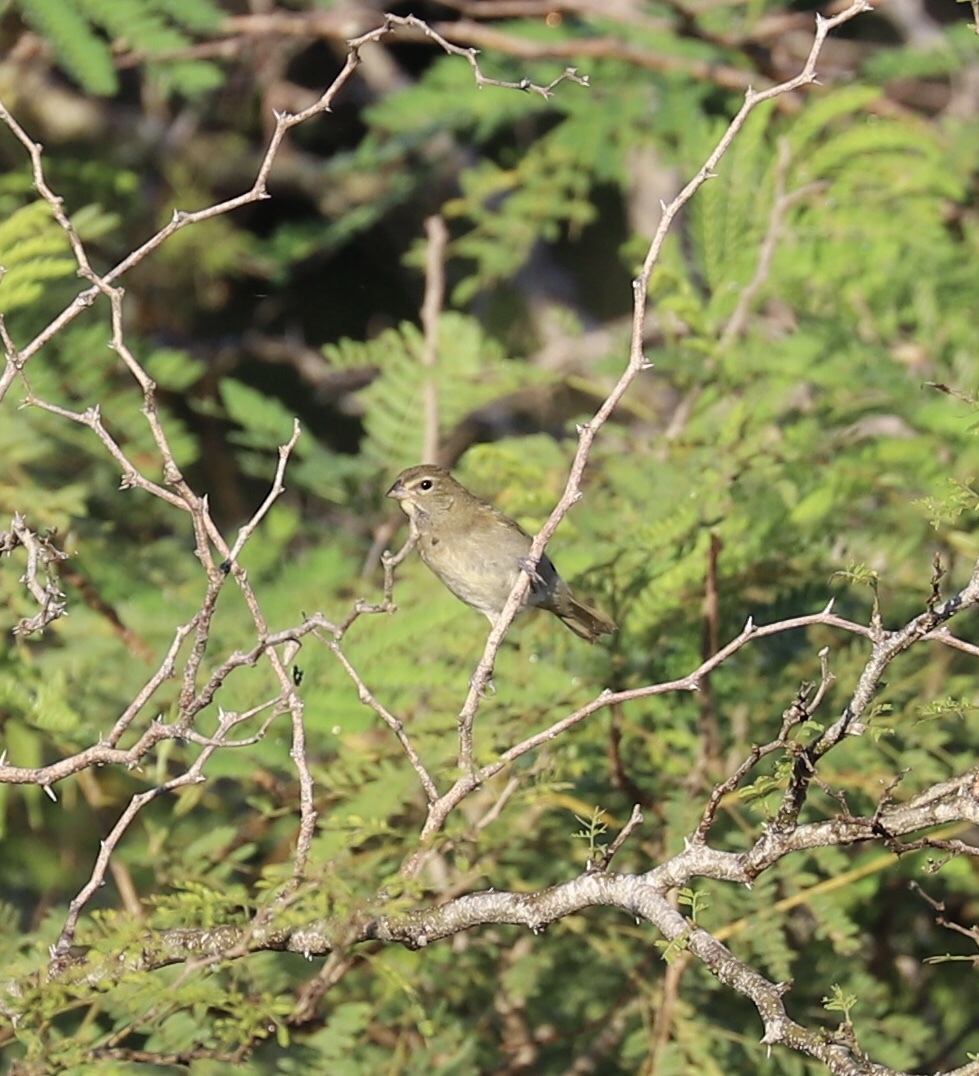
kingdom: Animalia
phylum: Chordata
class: Aves
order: Passeriformes
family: Thraupidae
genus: Tiaris
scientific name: Tiaris olivaceus
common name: Yellow-faced grassquit
